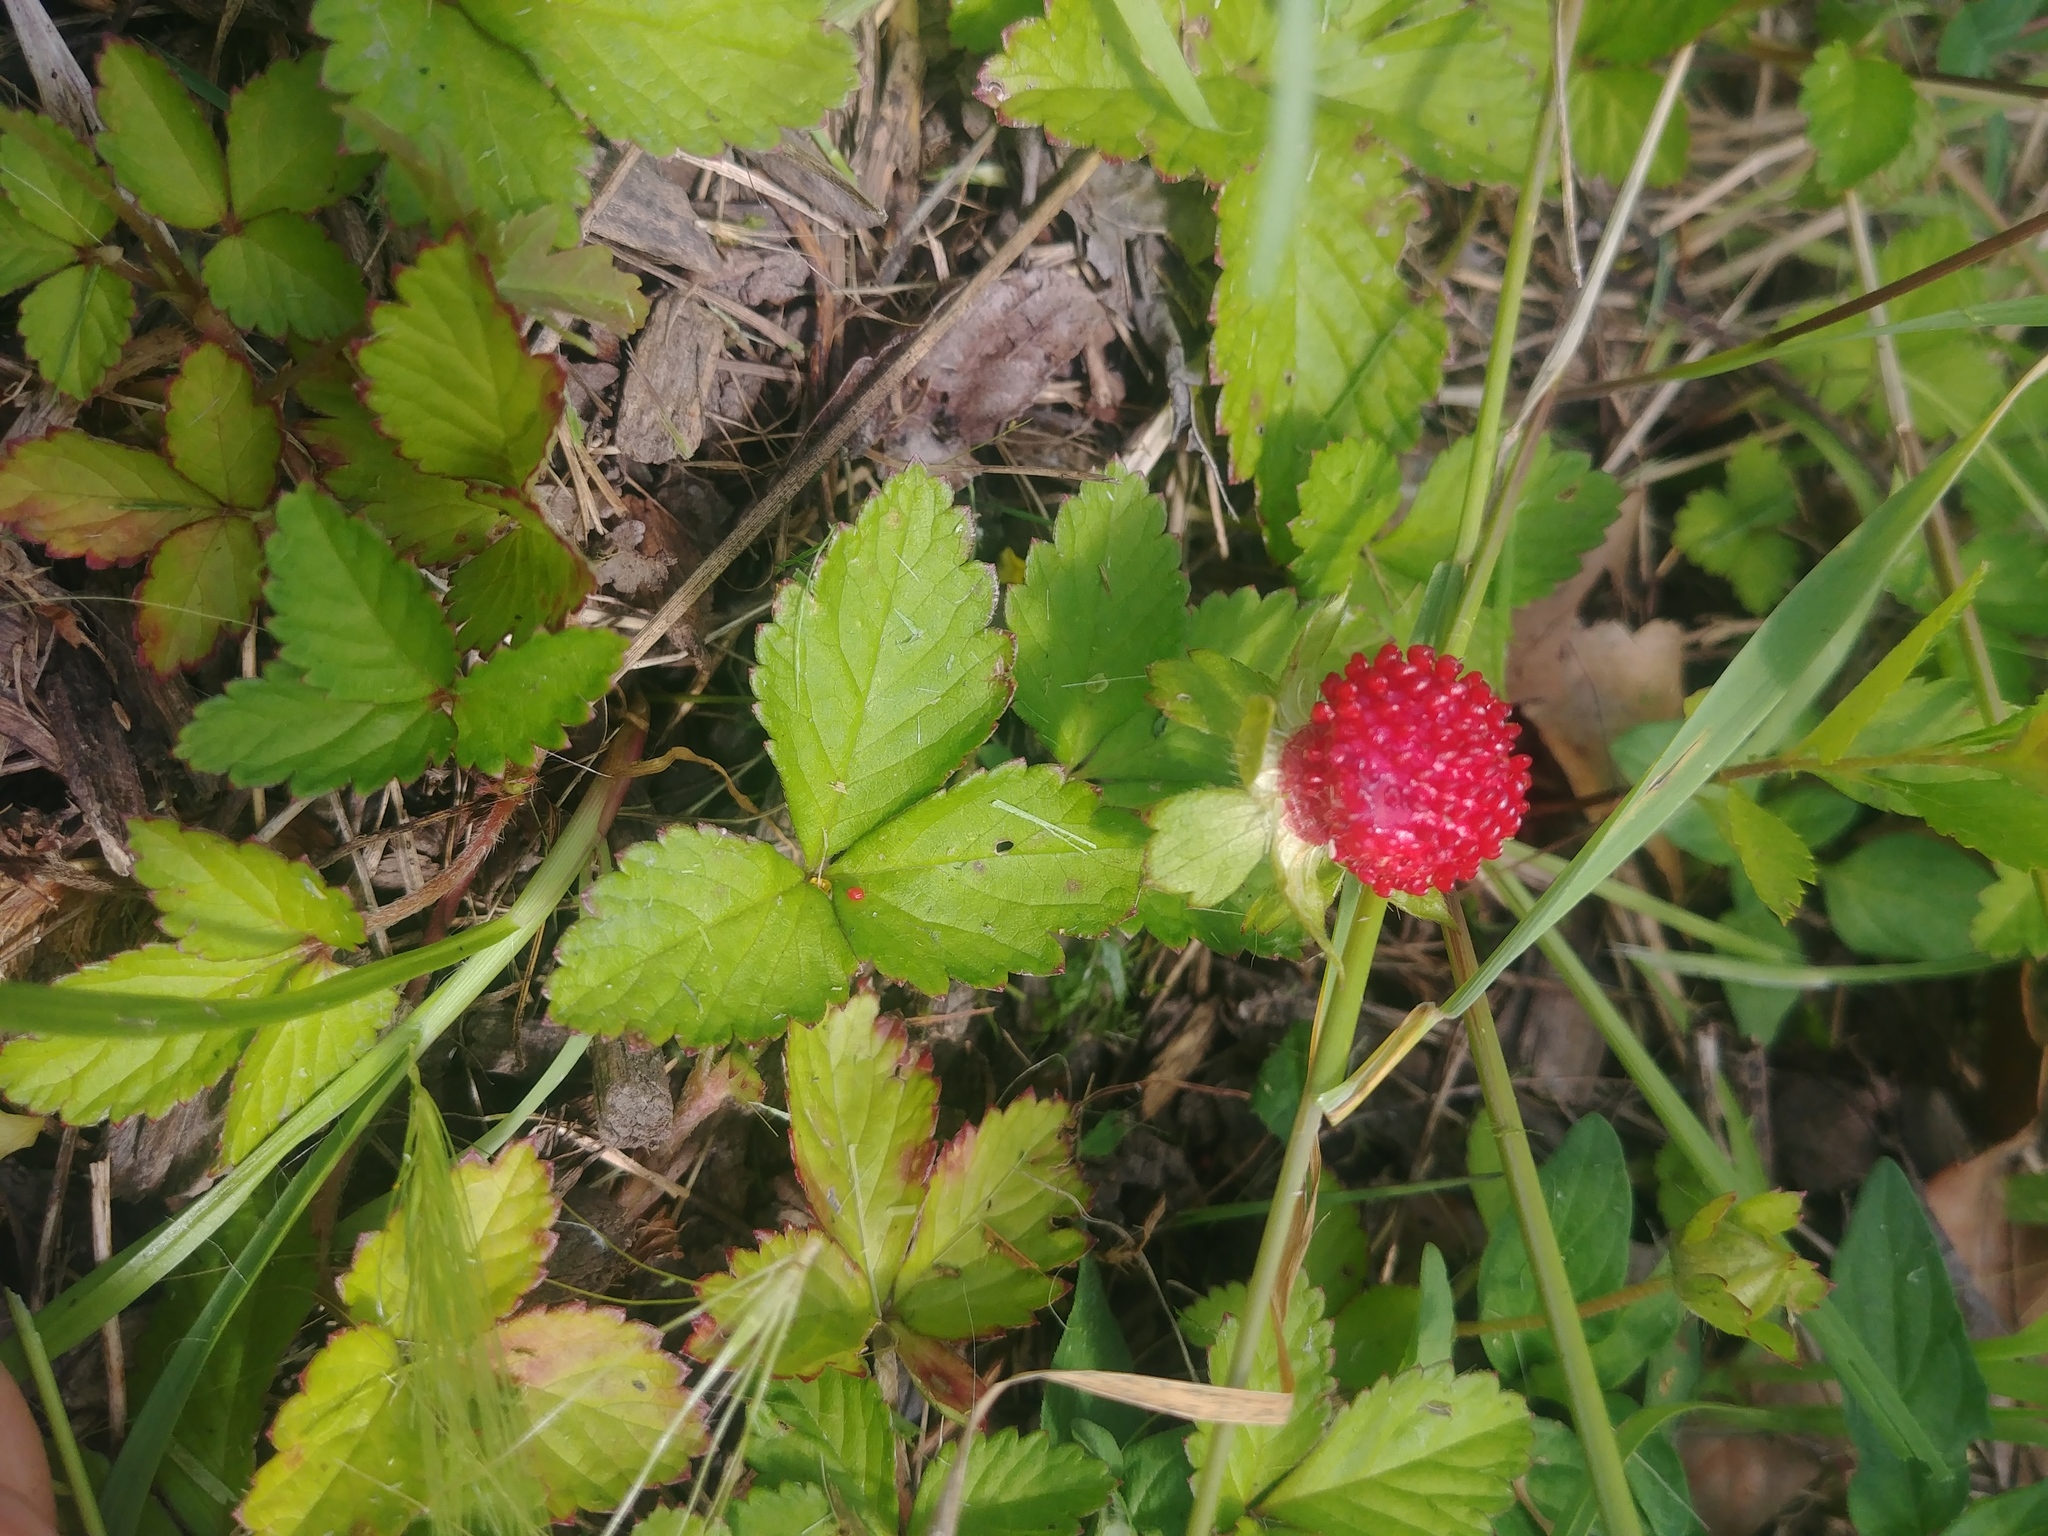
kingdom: Plantae
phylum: Tracheophyta
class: Magnoliopsida
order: Rosales
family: Rosaceae
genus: Potentilla
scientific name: Potentilla indica
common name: Yellow-flowered strawberry
